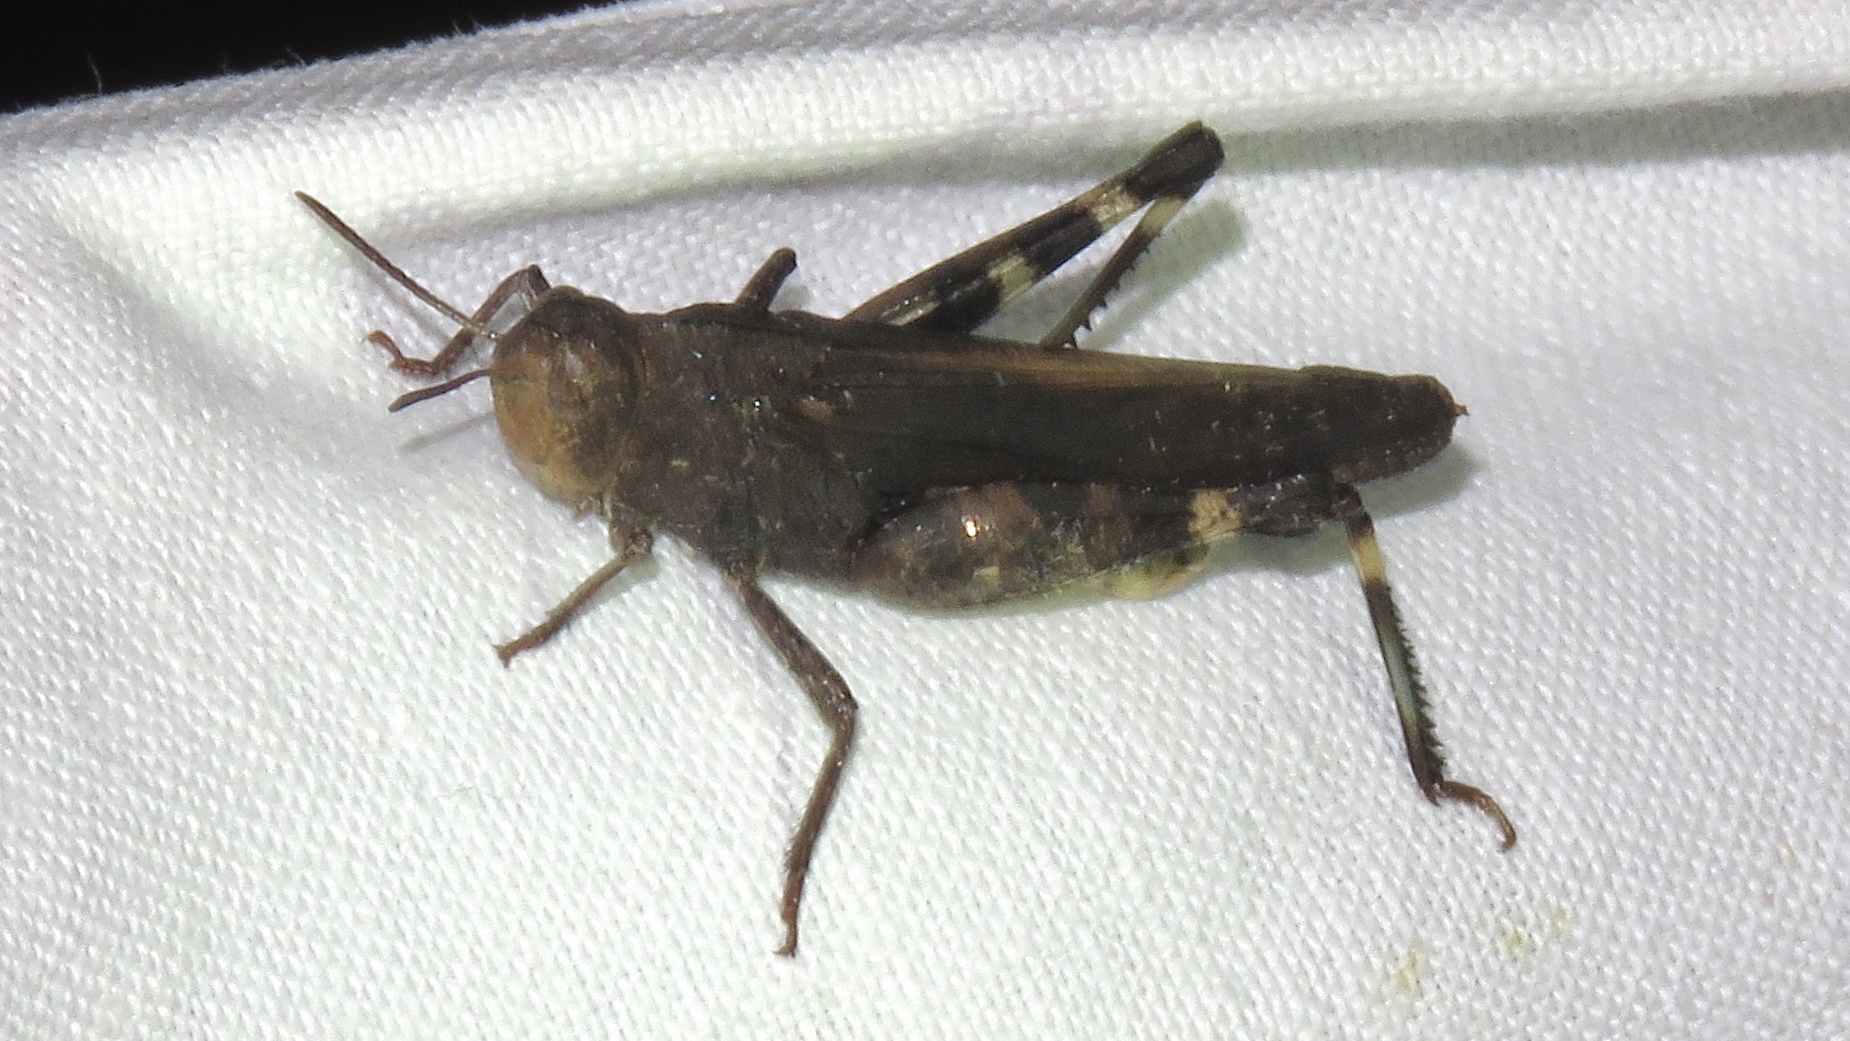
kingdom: Animalia
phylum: Arthropoda
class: Insecta
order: Orthoptera
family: Acrididae
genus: Arphia
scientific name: Arphia sulphurea
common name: Spring yellow-winged locust
